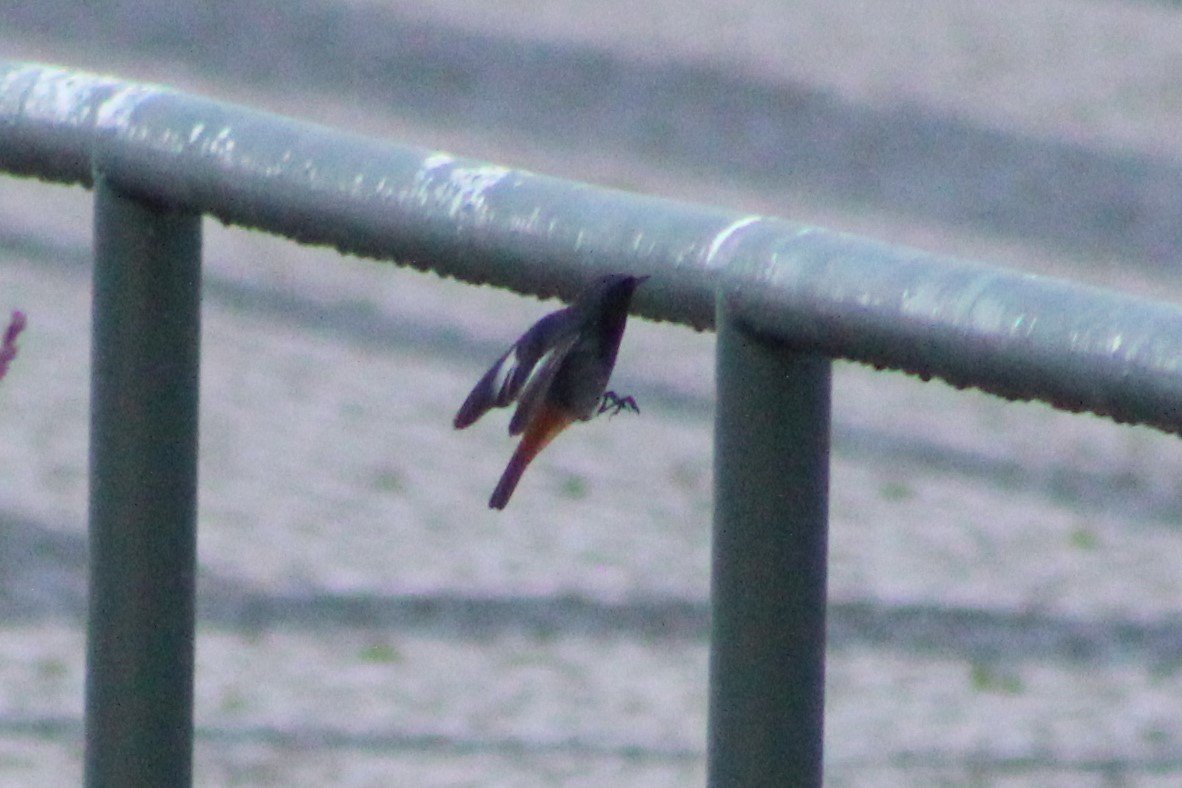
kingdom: Animalia
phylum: Chordata
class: Aves
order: Passeriformes
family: Muscicapidae
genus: Phoenicurus
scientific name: Phoenicurus ochruros
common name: Black redstart
